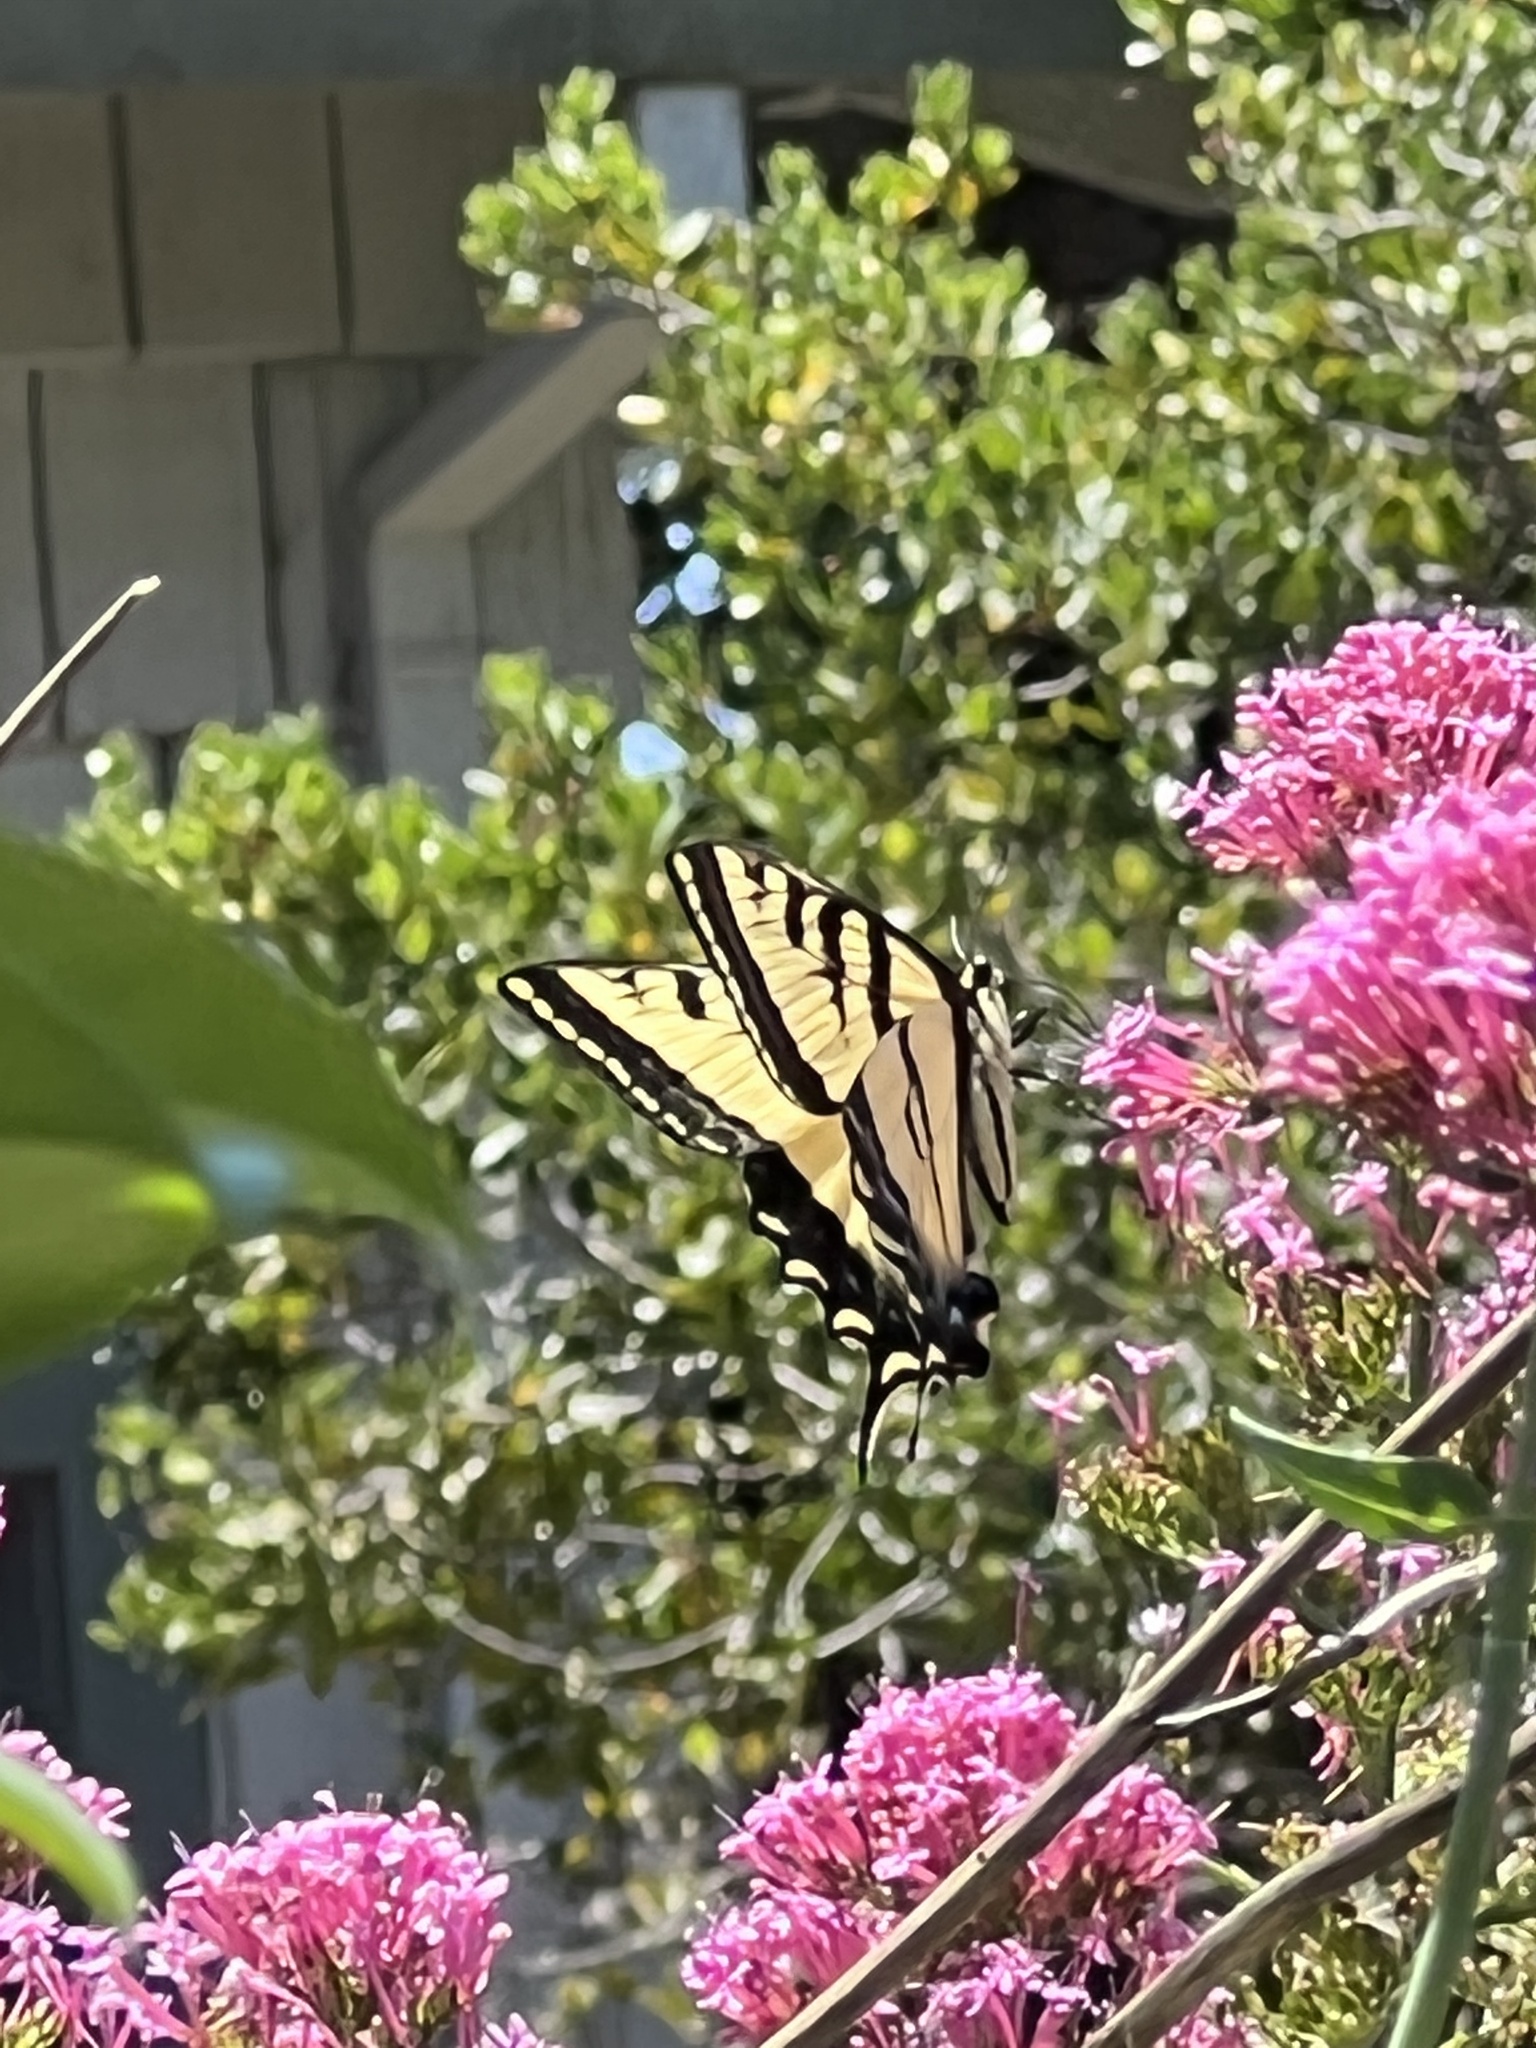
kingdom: Animalia
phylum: Arthropoda
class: Insecta
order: Lepidoptera
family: Papilionidae
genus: Papilio
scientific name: Papilio rutulus
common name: Western tiger swallowtail
